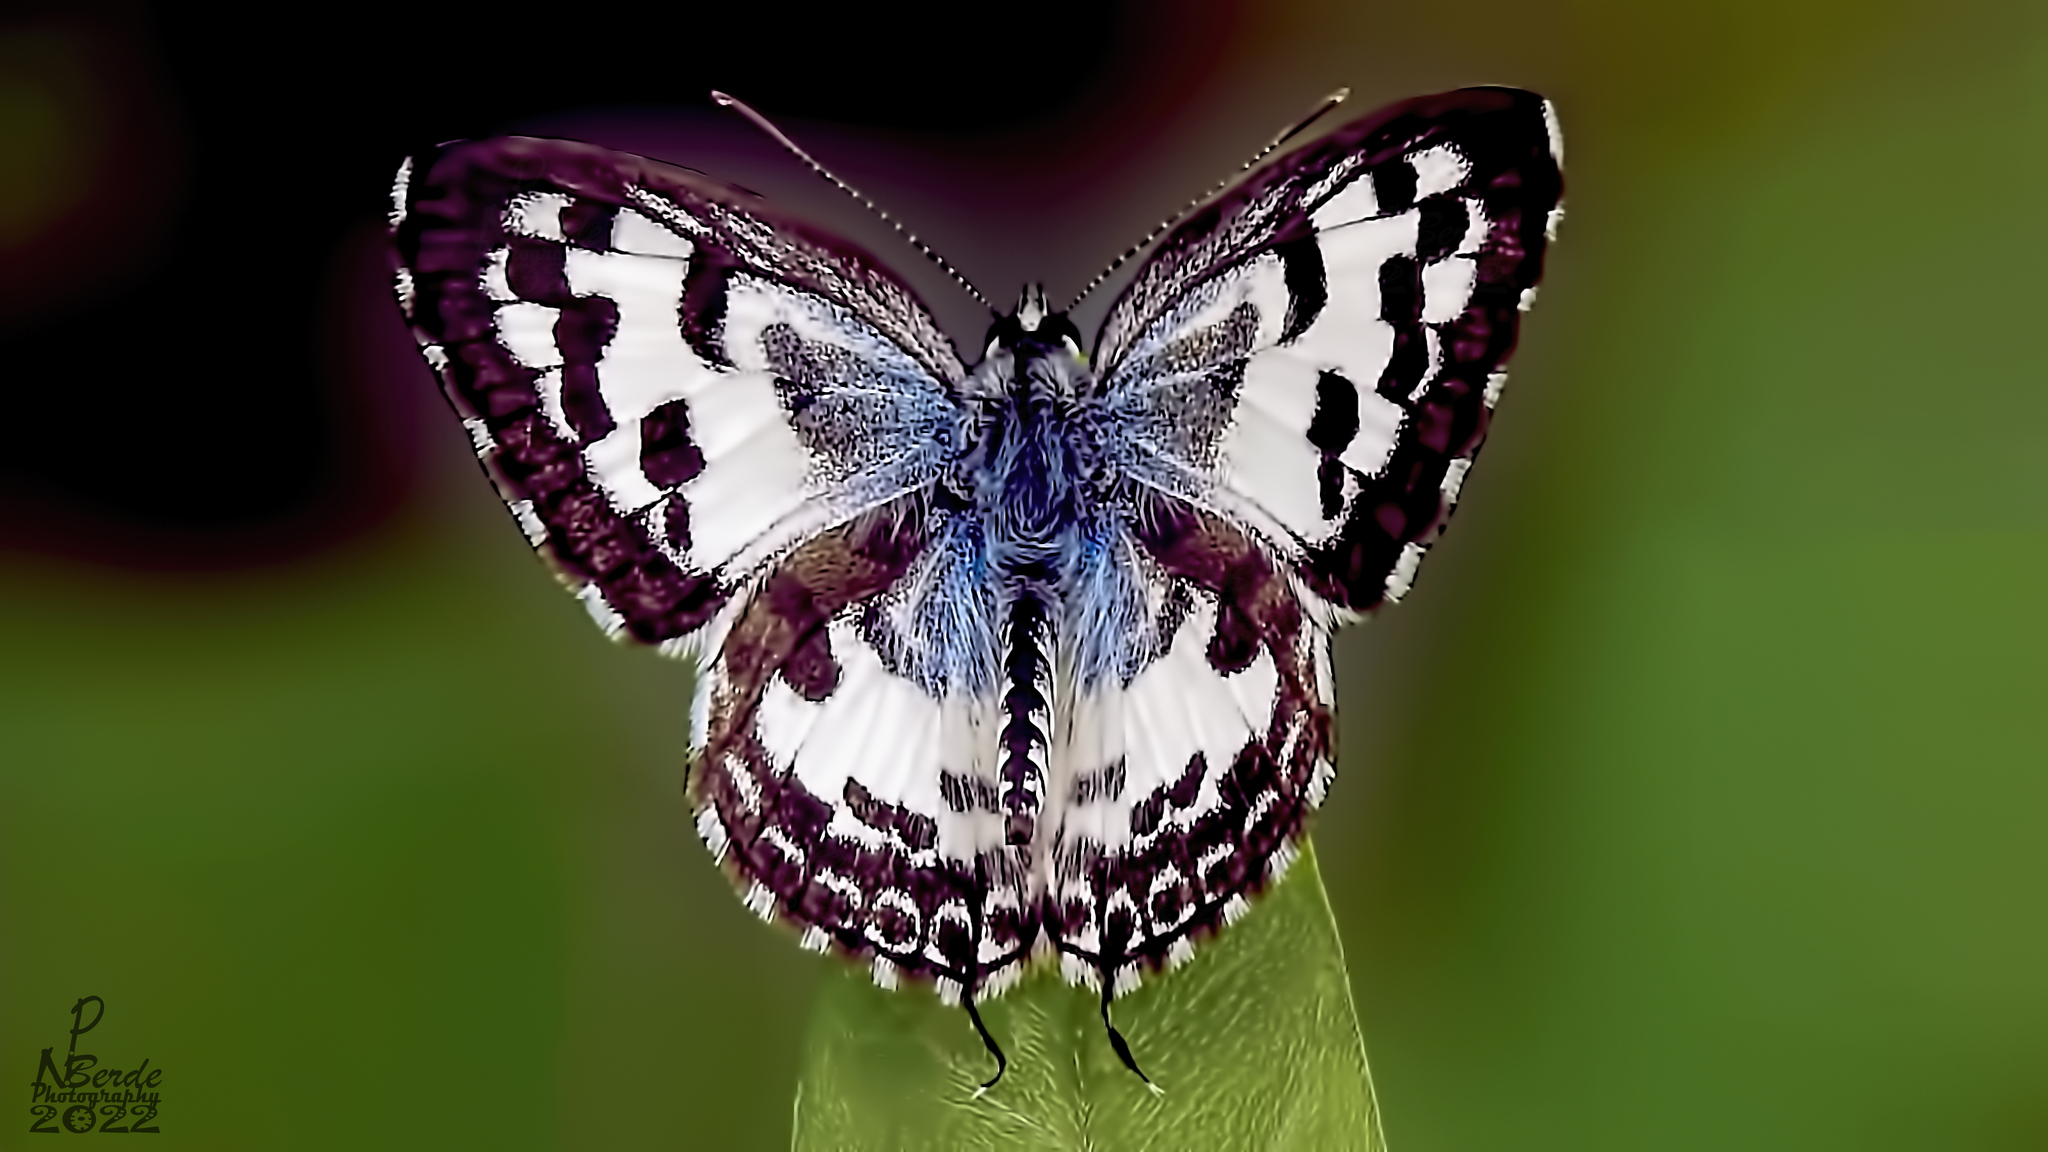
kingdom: Animalia
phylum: Arthropoda
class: Insecta
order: Lepidoptera
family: Lycaenidae
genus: Castalius
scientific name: Castalius rosimon
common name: Common pierrot
